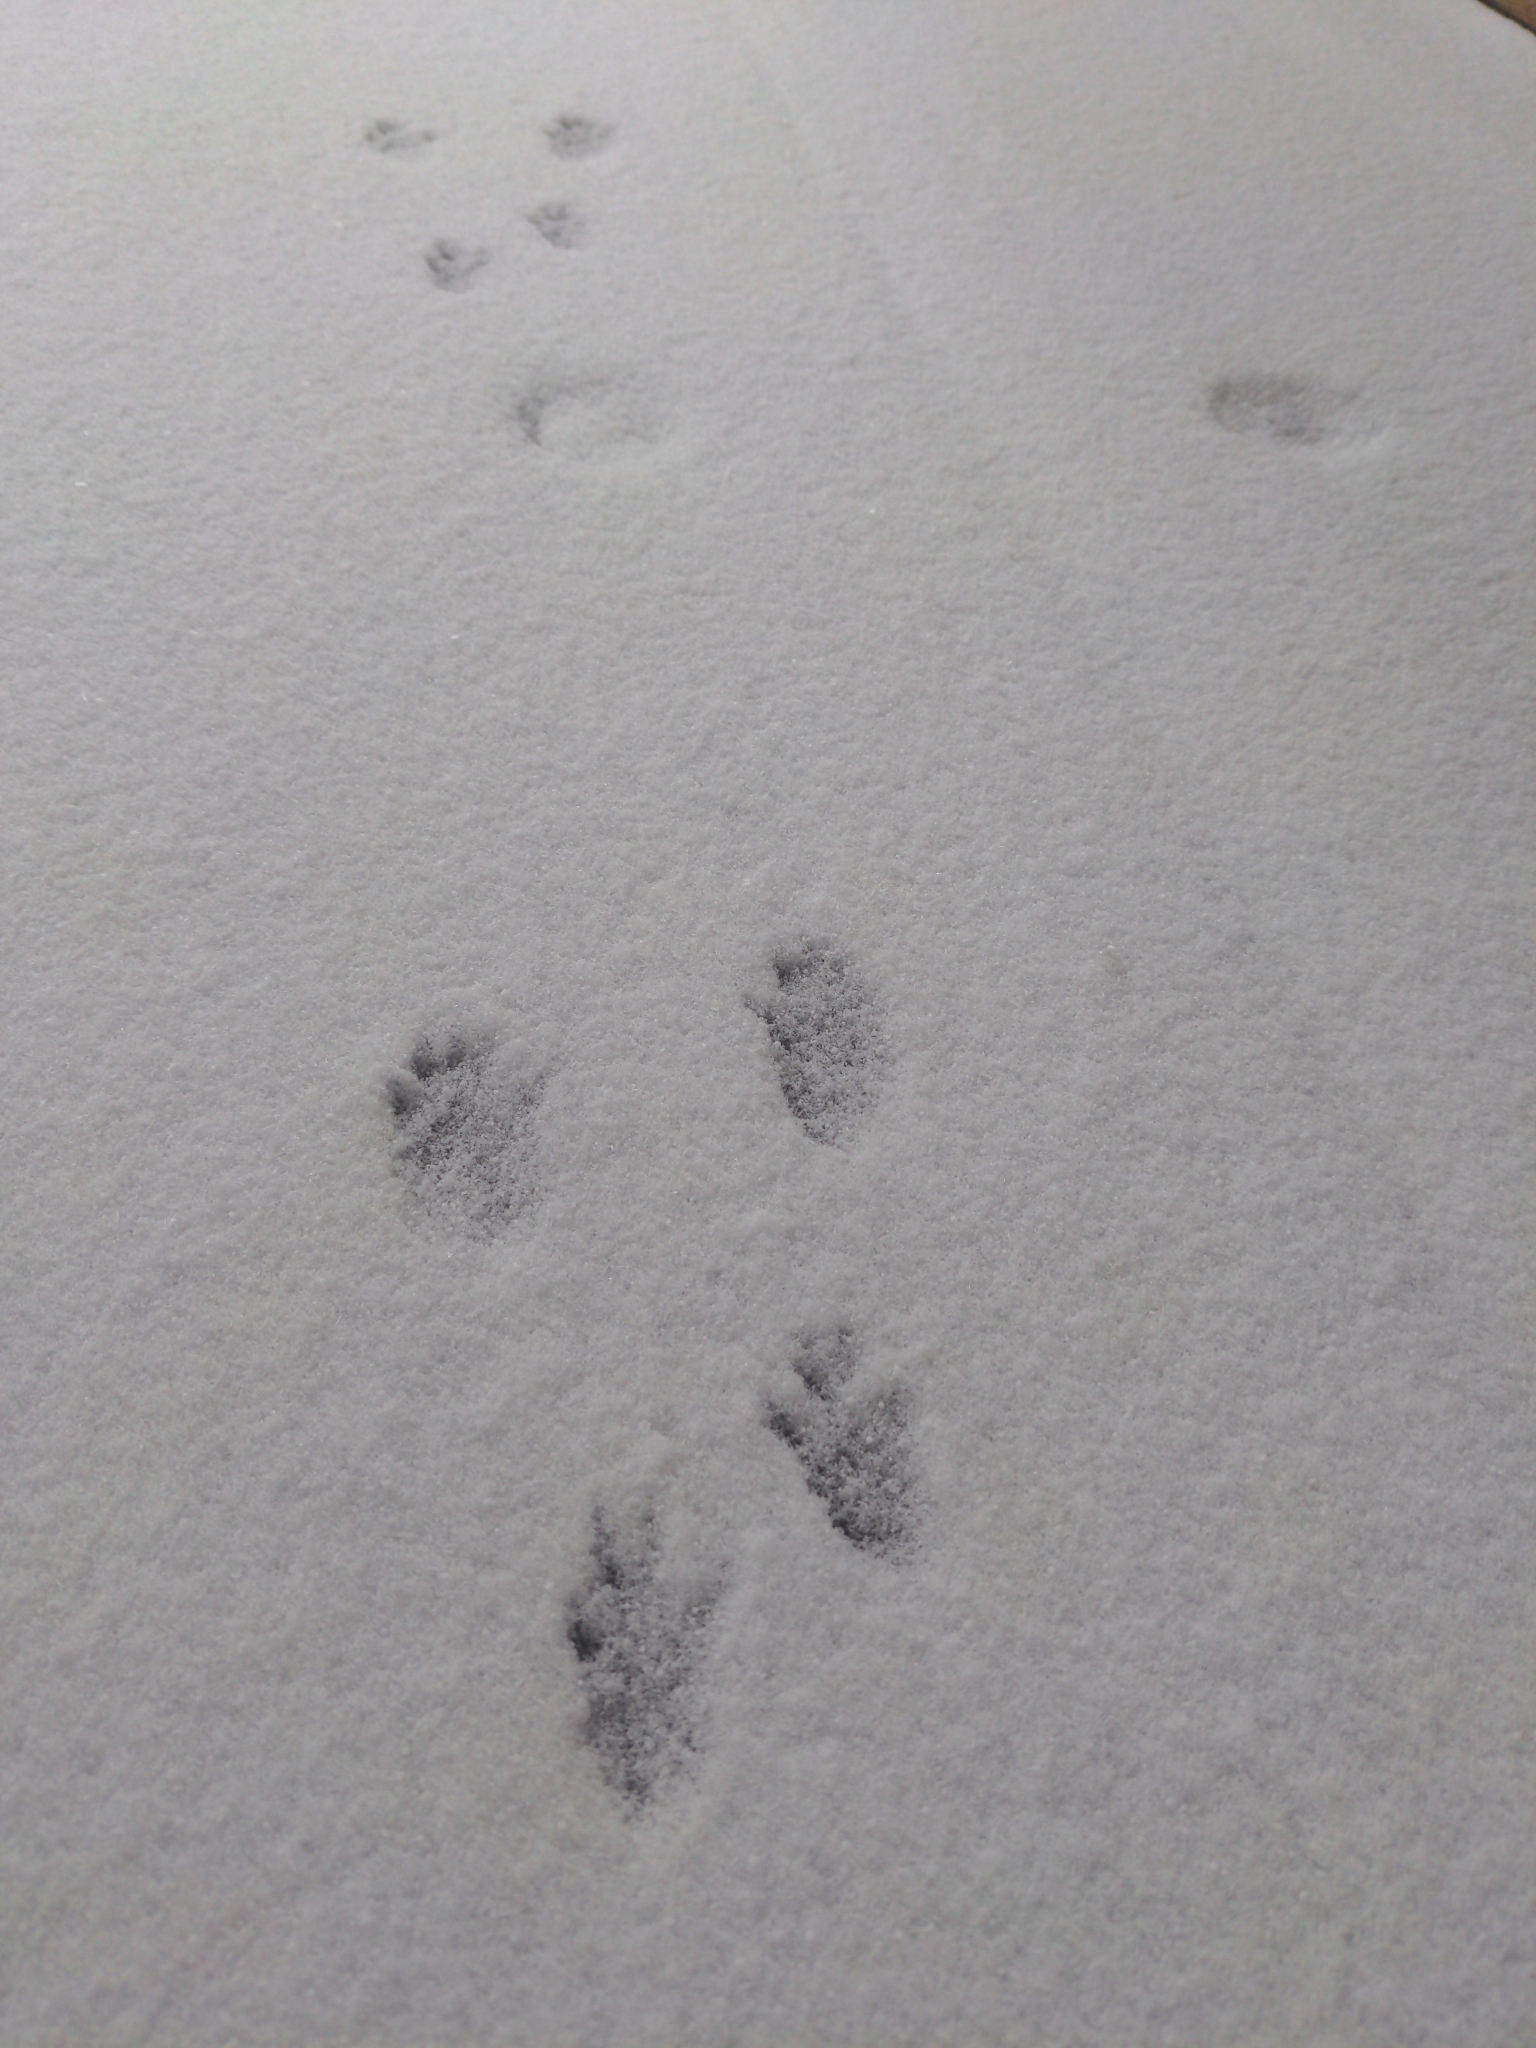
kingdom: Animalia
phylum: Chordata
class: Mammalia
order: Rodentia
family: Sciuridae
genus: Sciurus
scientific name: Sciurus carolinensis
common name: Eastern gray squirrel
